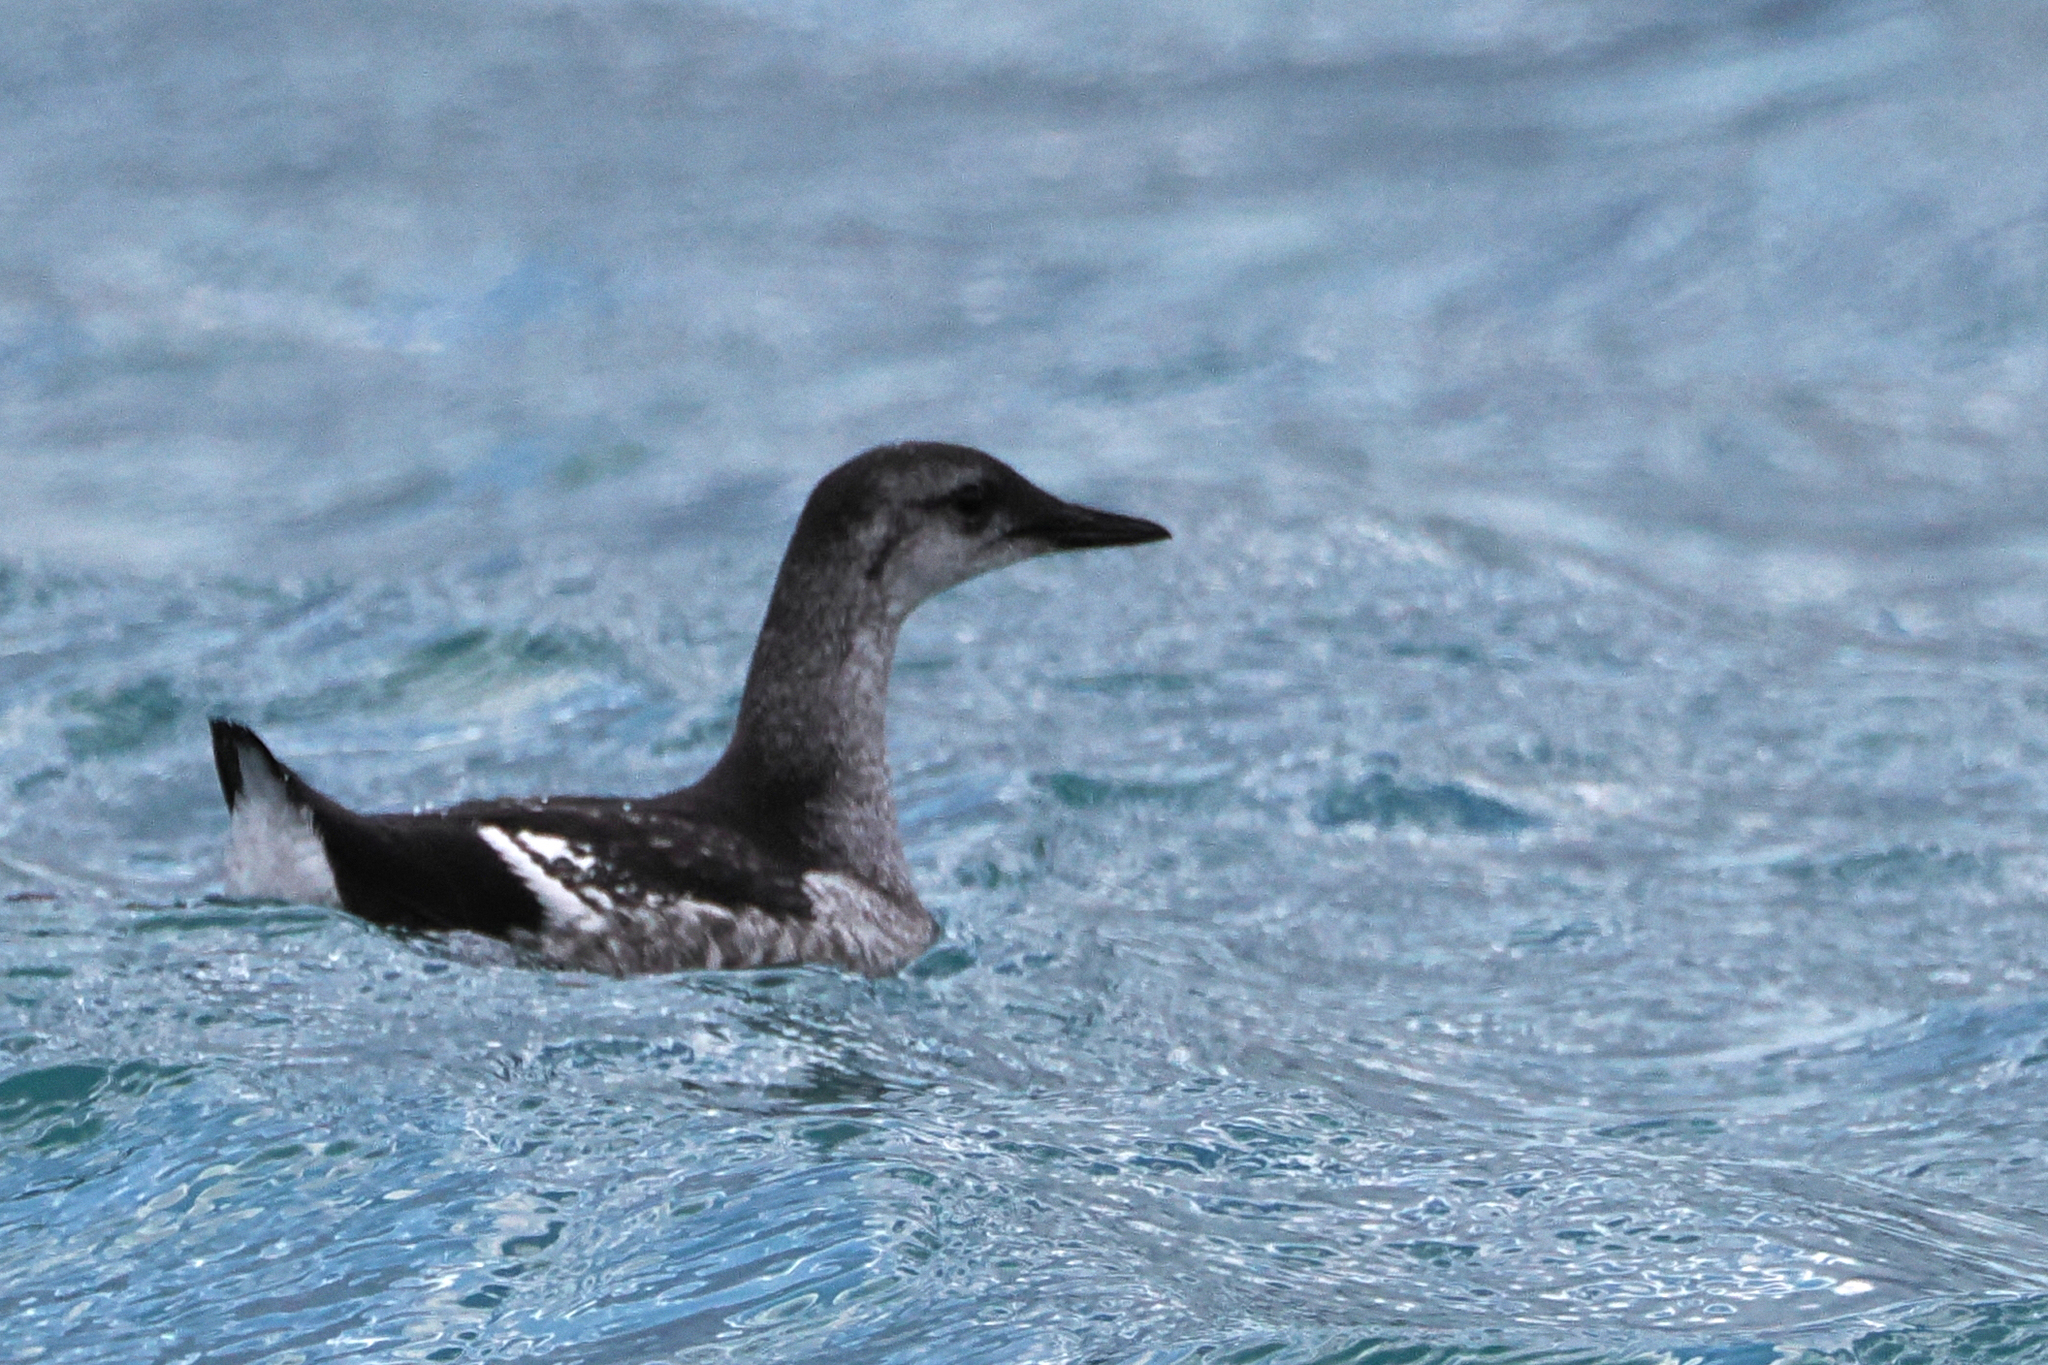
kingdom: Animalia
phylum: Chordata
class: Aves
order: Charadriiformes
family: Alcidae
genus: Cepphus
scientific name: Cepphus grylle
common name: Black guillemot
